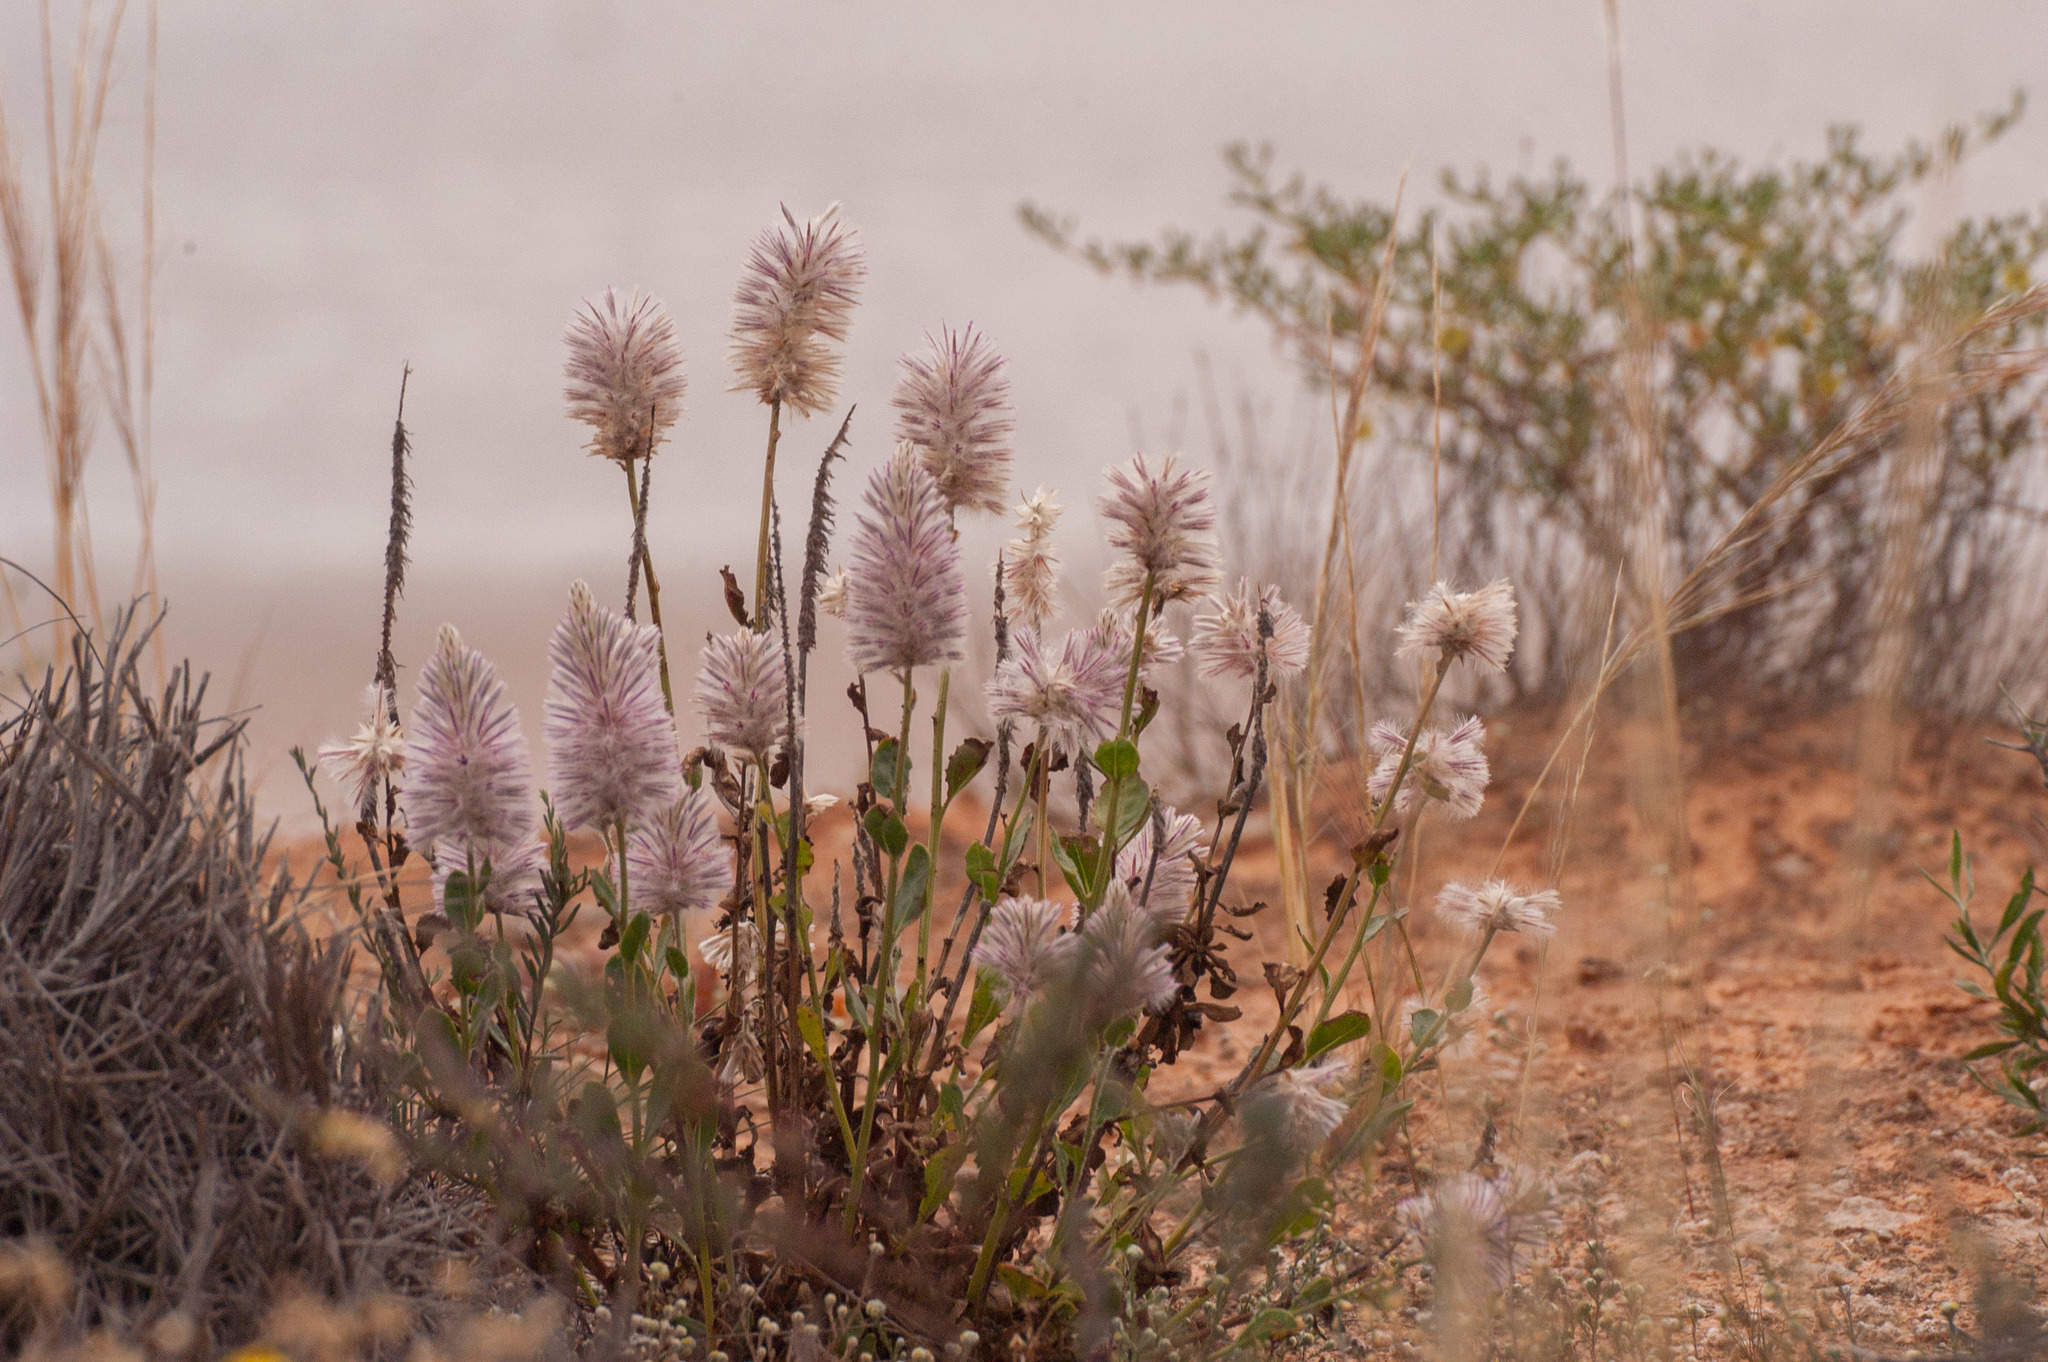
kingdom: Plantae
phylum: Tracheophyta
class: Magnoliopsida
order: Caryophyllales
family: Amaranthaceae
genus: Ptilotus
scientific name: Ptilotus exaltatus
